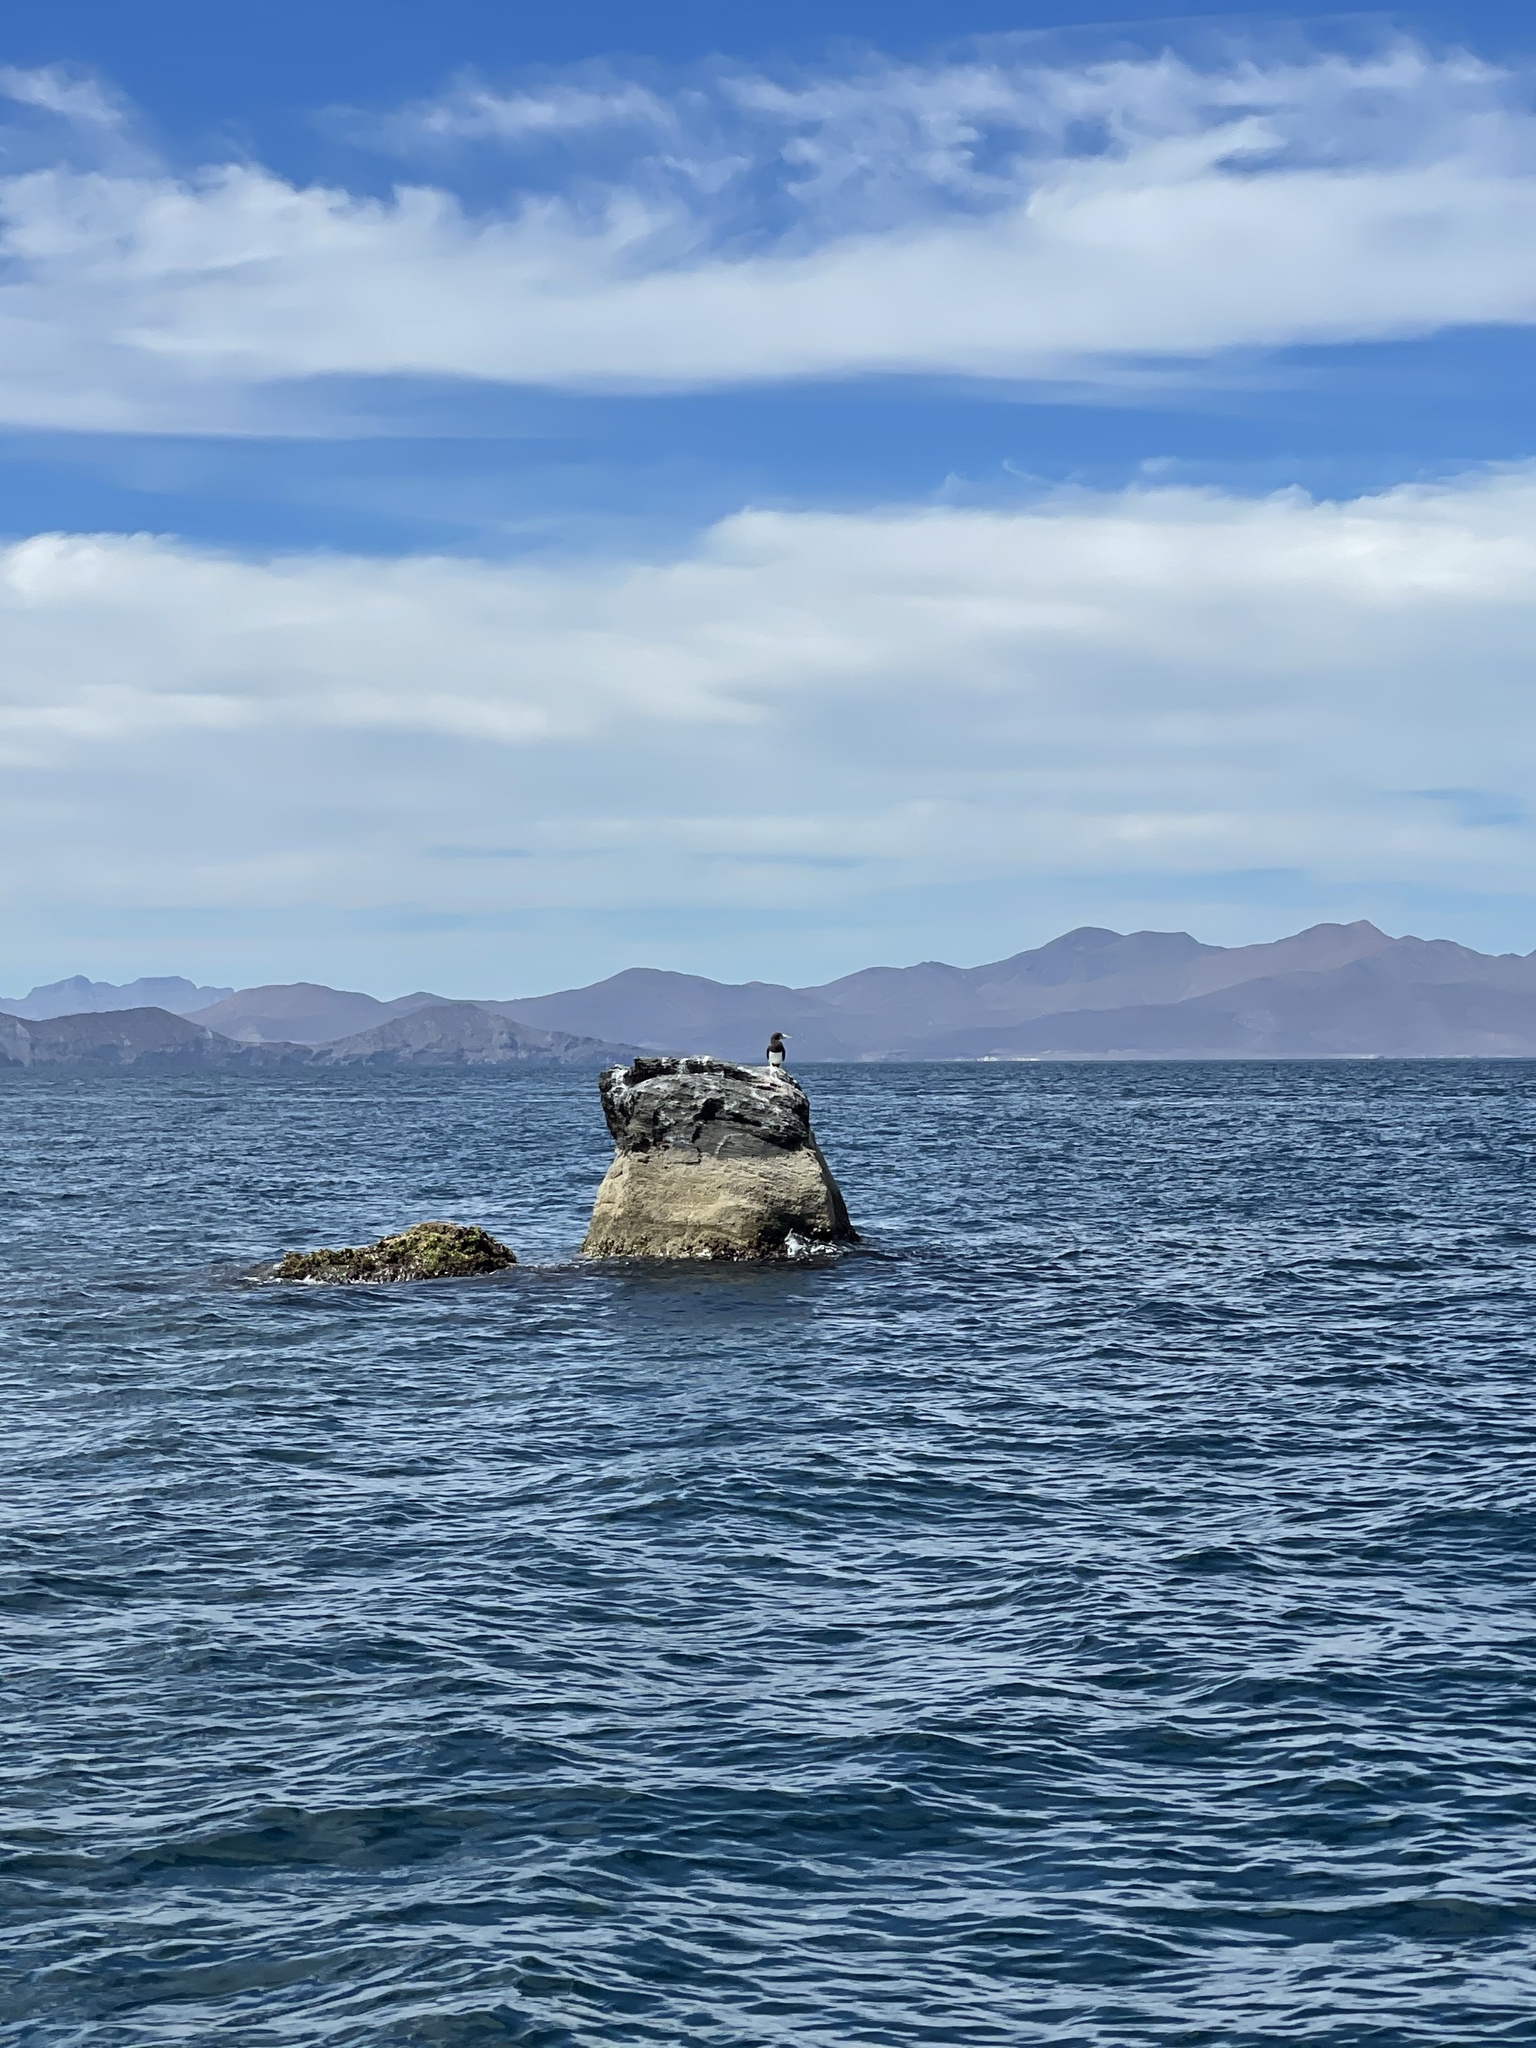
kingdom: Animalia
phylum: Chordata
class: Aves
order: Suliformes
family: Sulidae
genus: Sula
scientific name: Sula leucogaster
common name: Brown booby
